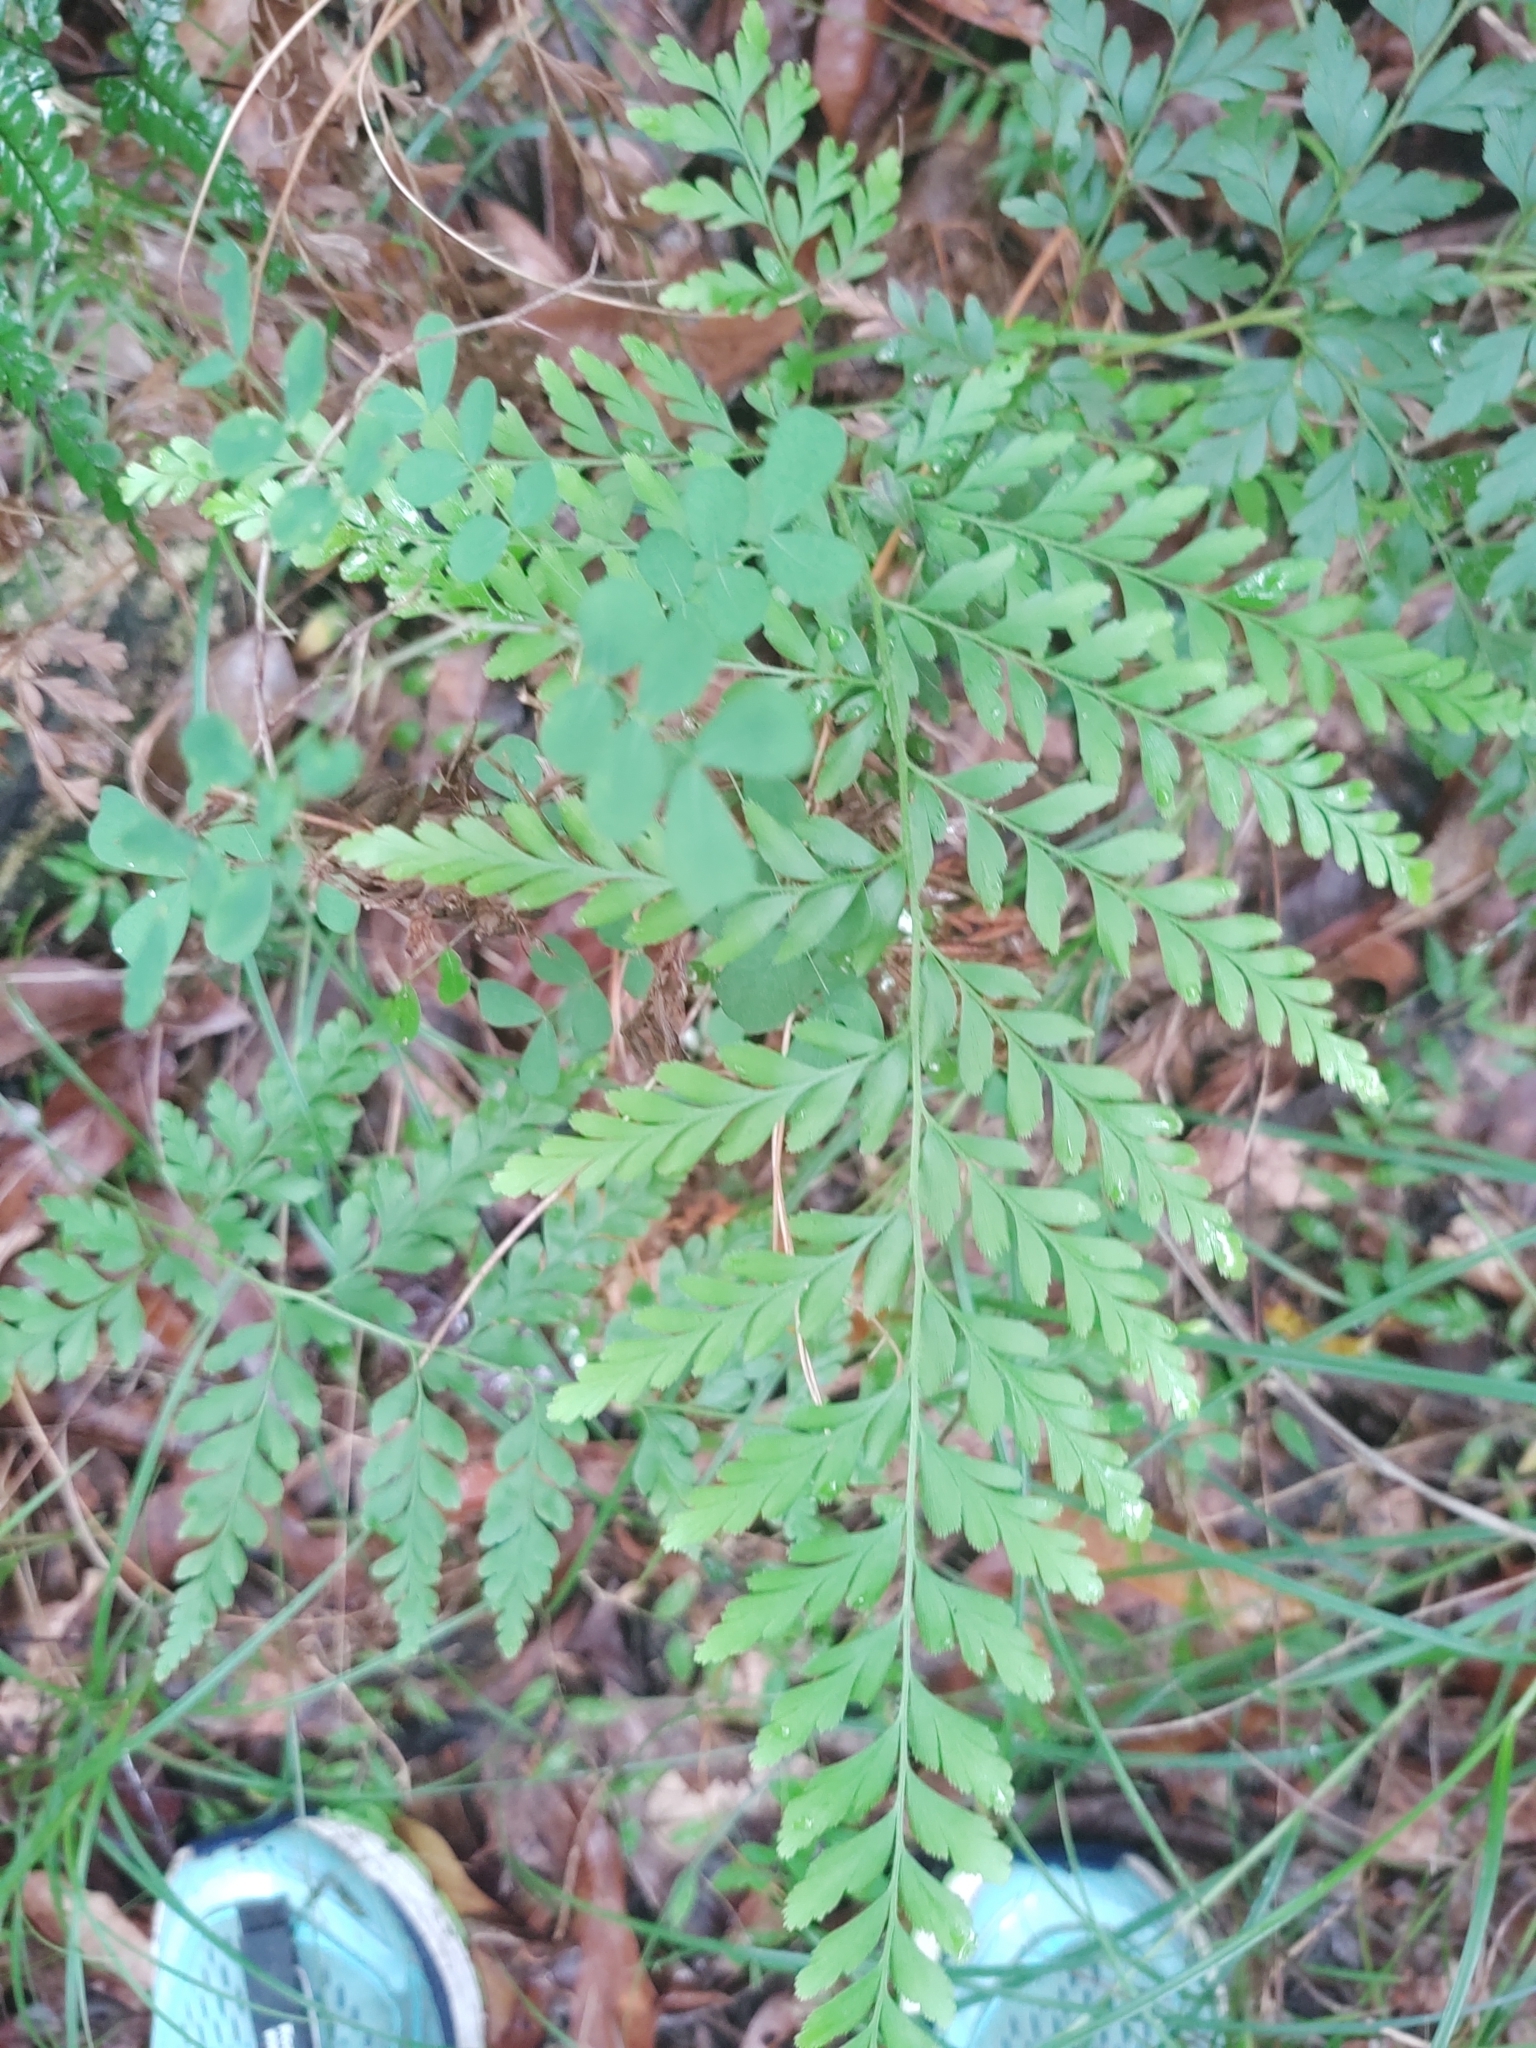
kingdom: Plantae
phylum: Tracheophyta
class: Polypodiopsida
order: Schizaeales
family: Anemiaceae
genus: Anemia
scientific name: Anemia adiantifolia
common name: Pine fern
